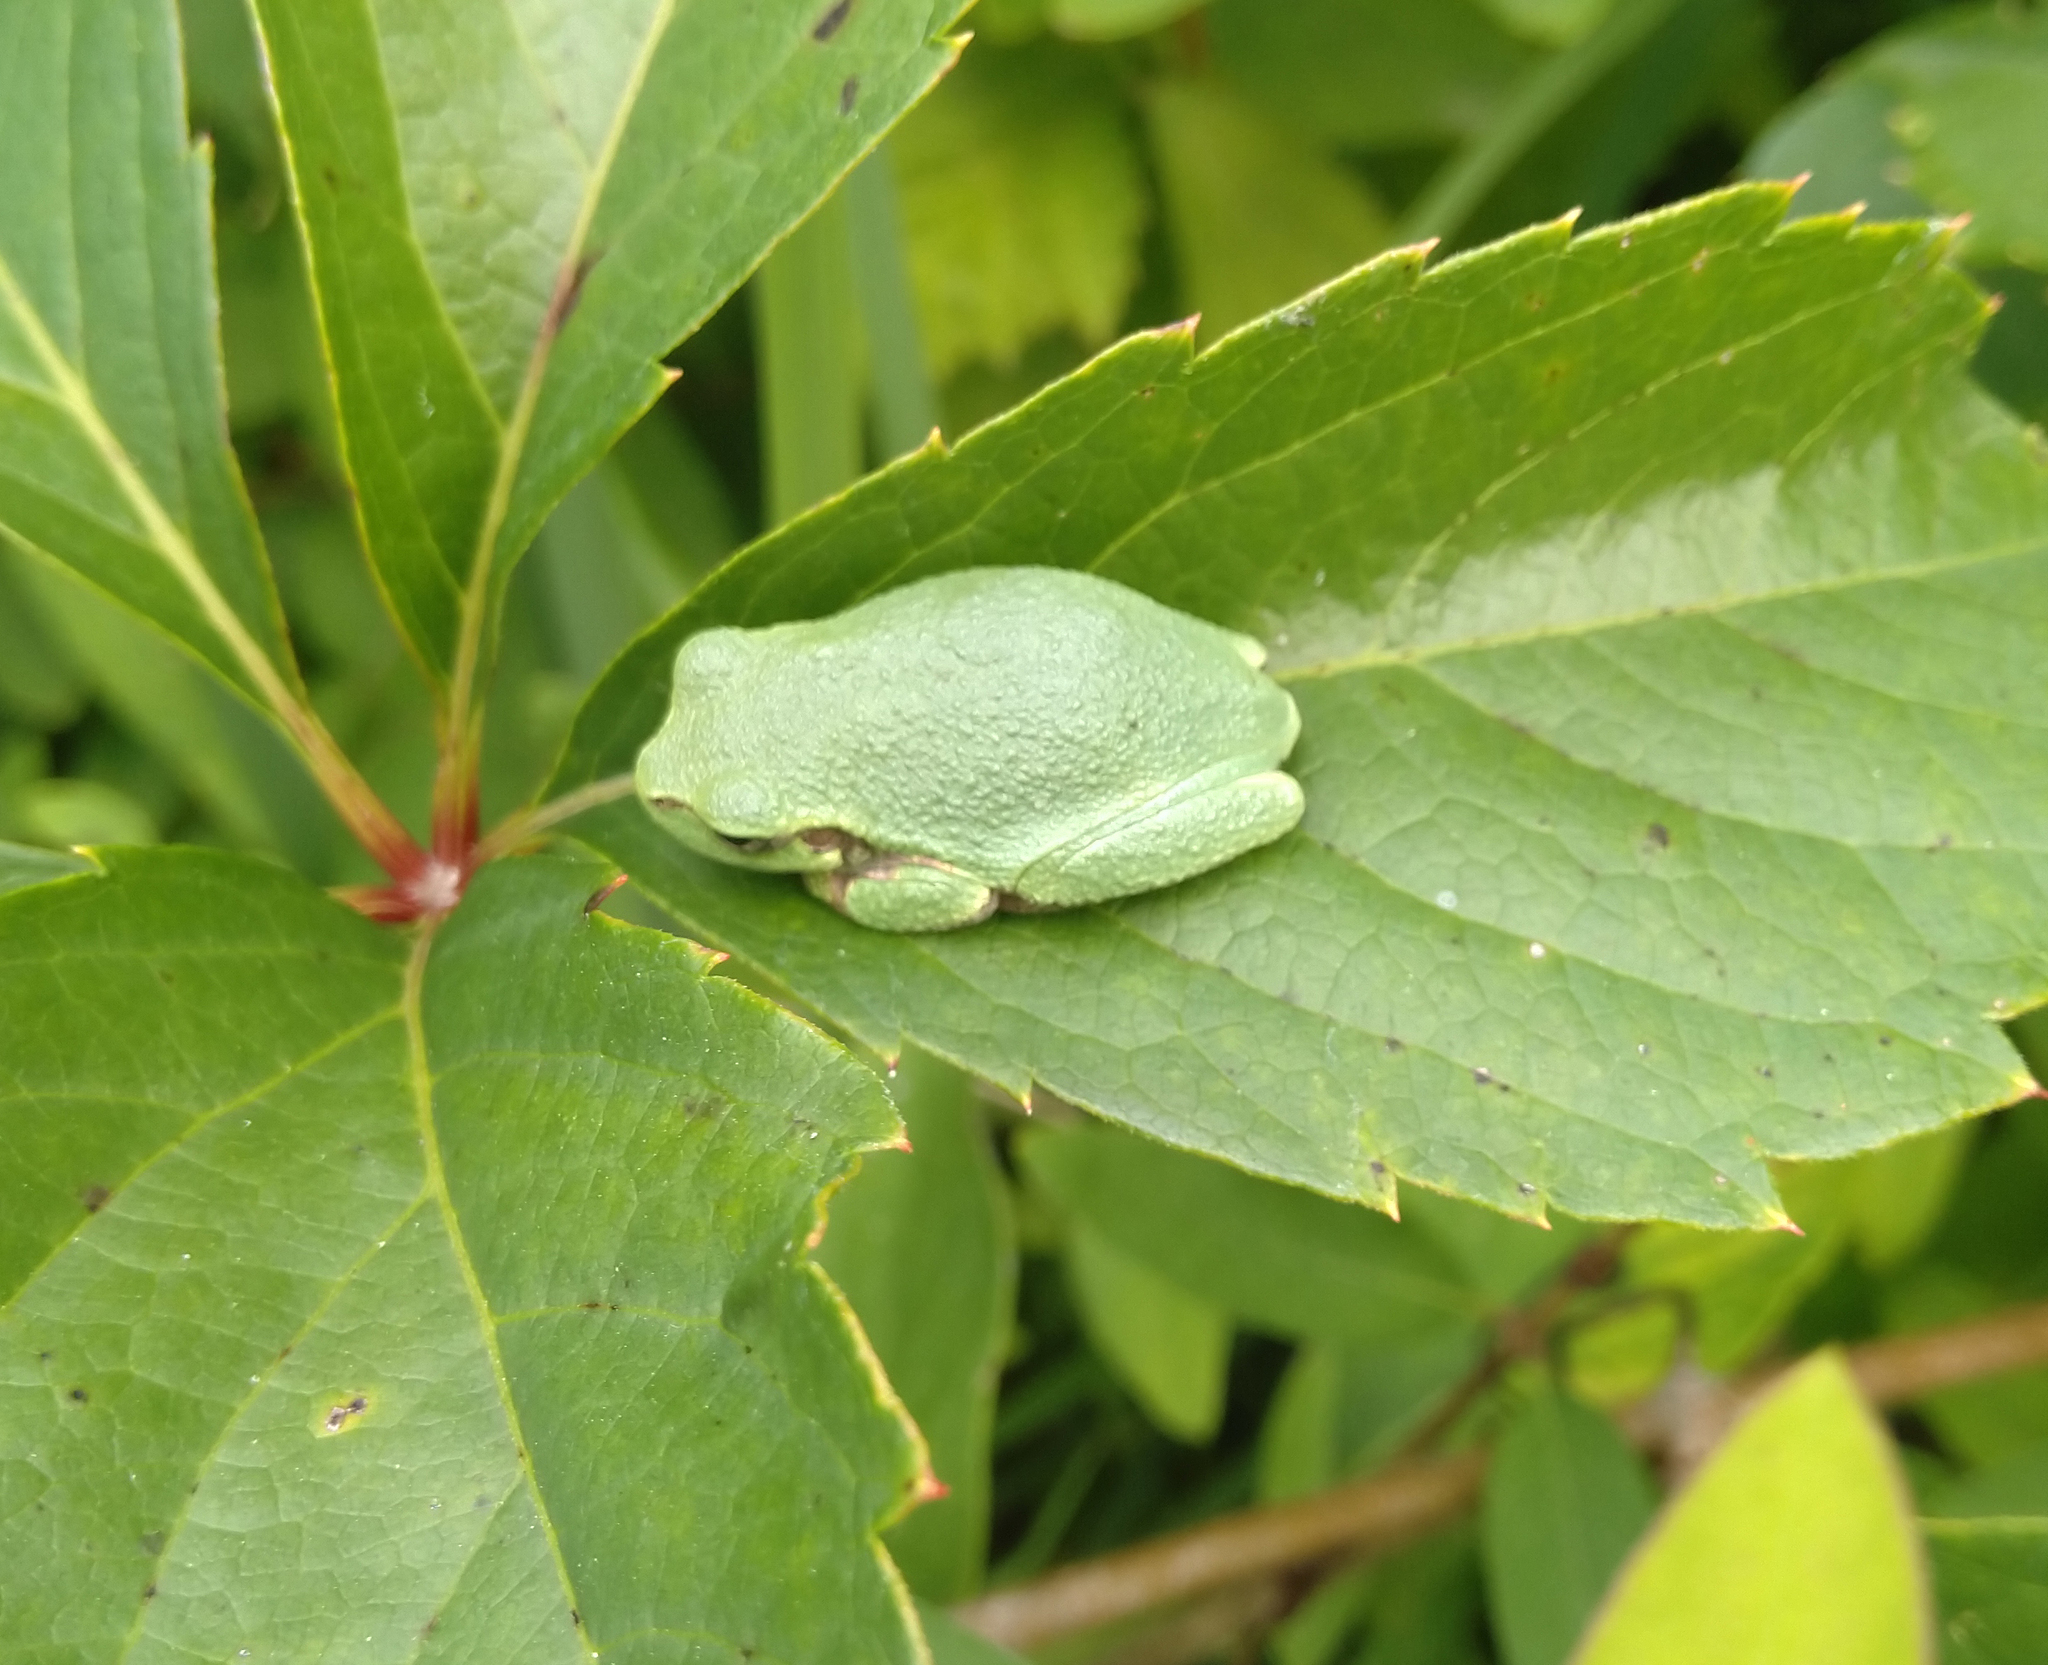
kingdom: Animalia
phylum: Chordata
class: Amphibia
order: Anura
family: Hylidae
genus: Hyla
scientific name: Hyla
